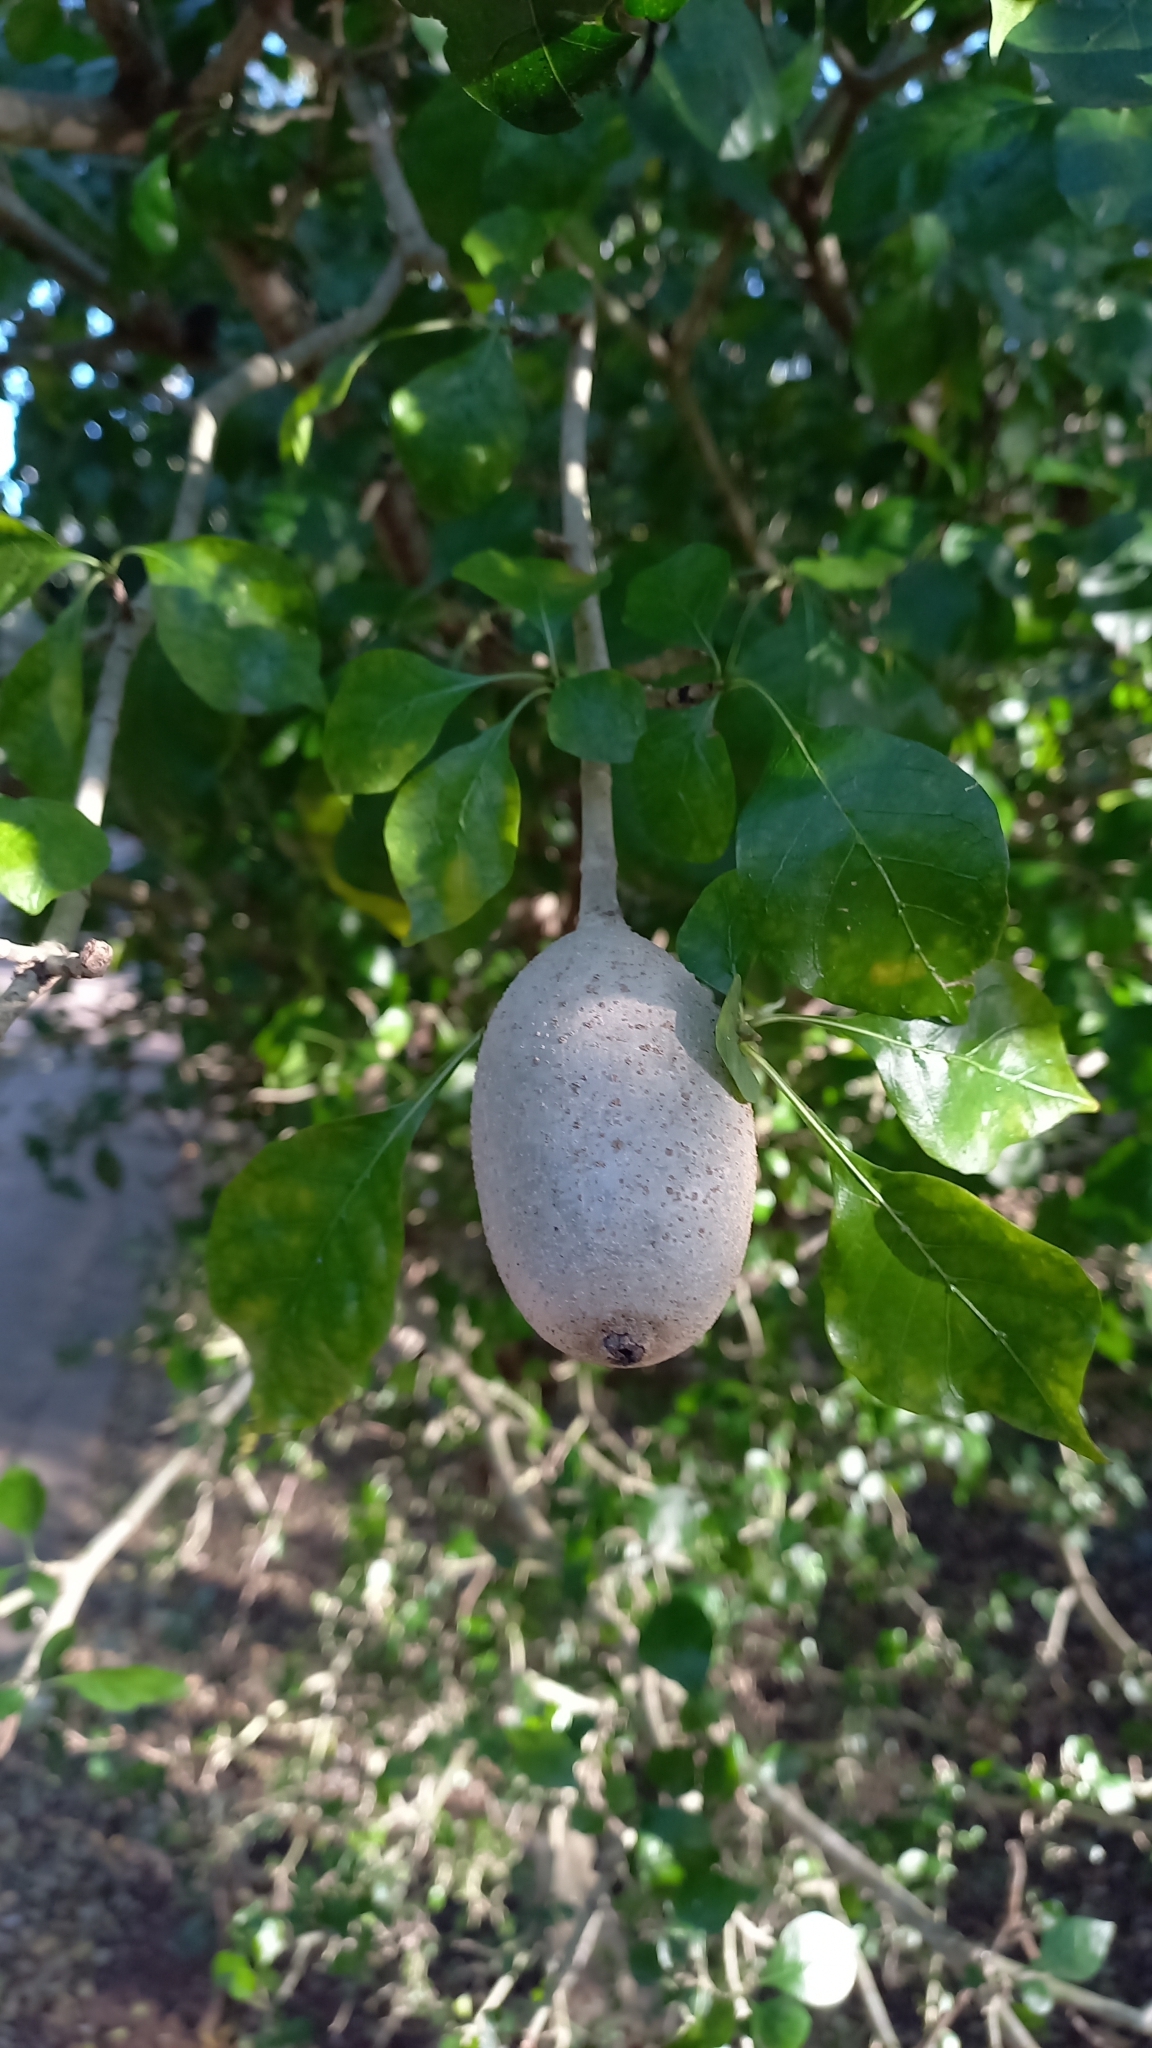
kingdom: Plantae
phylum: Tracheophyta
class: Magnoliopsida
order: Gentianales
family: Rubiaceae
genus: Gardenia
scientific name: Gardenia volkensii
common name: Common gardenia
